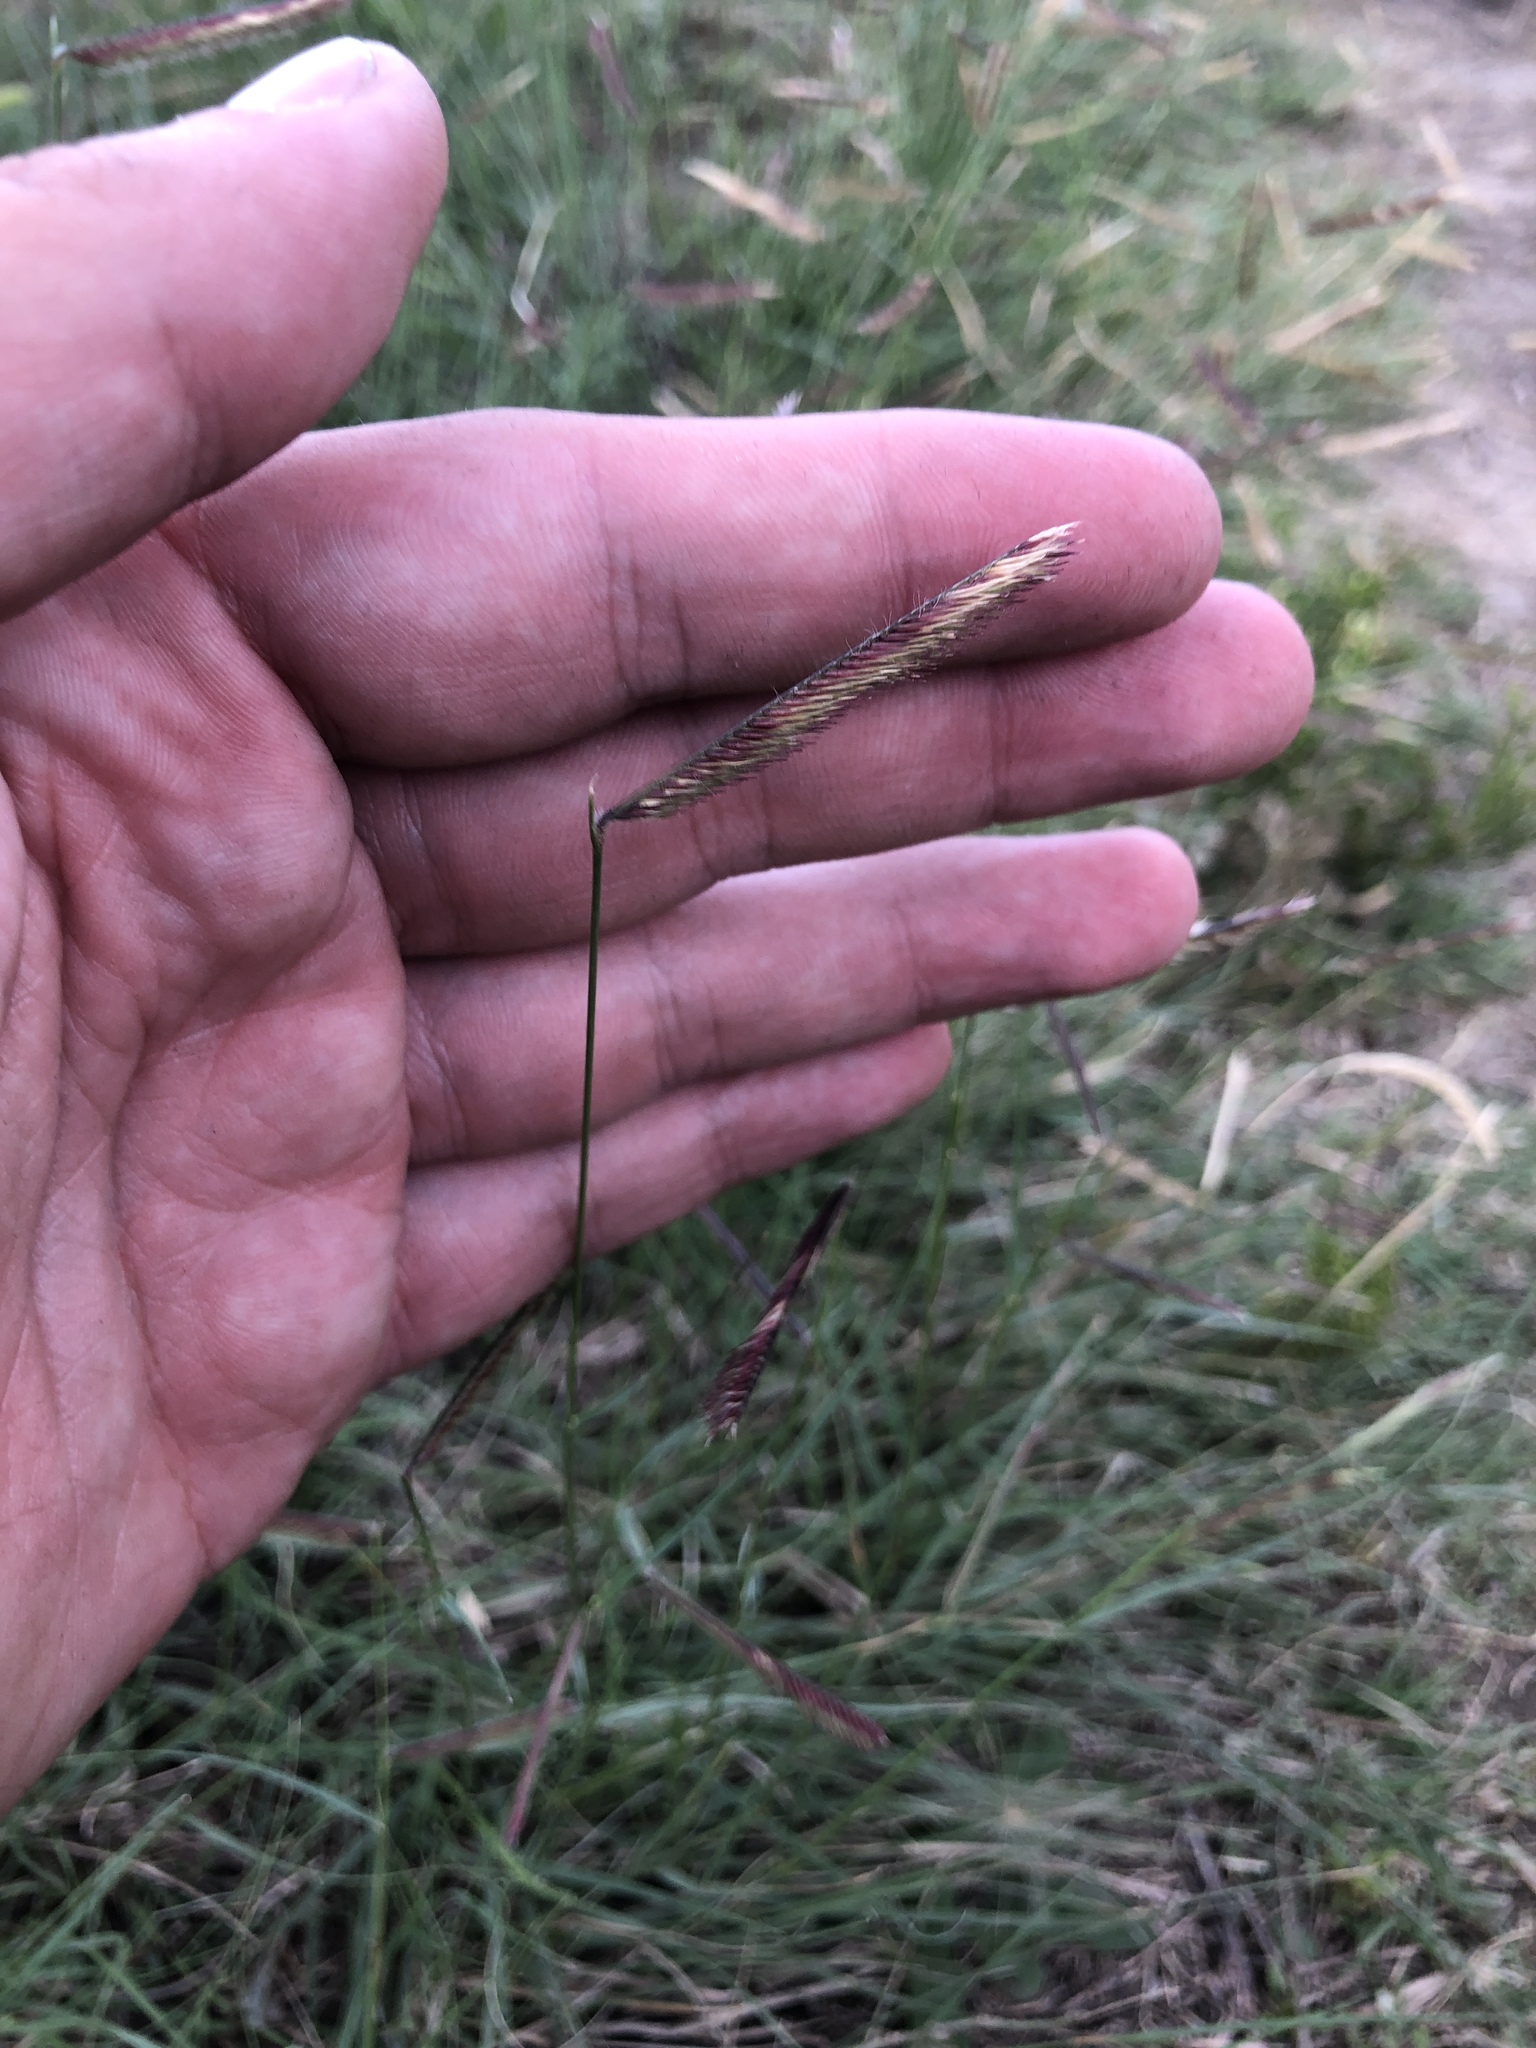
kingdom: Plantae
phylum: Tracheophyta
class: Liliopsida
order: Poales
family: Poaceae
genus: Bouteloua
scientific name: Bouteloua gracilis
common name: Blue grama
